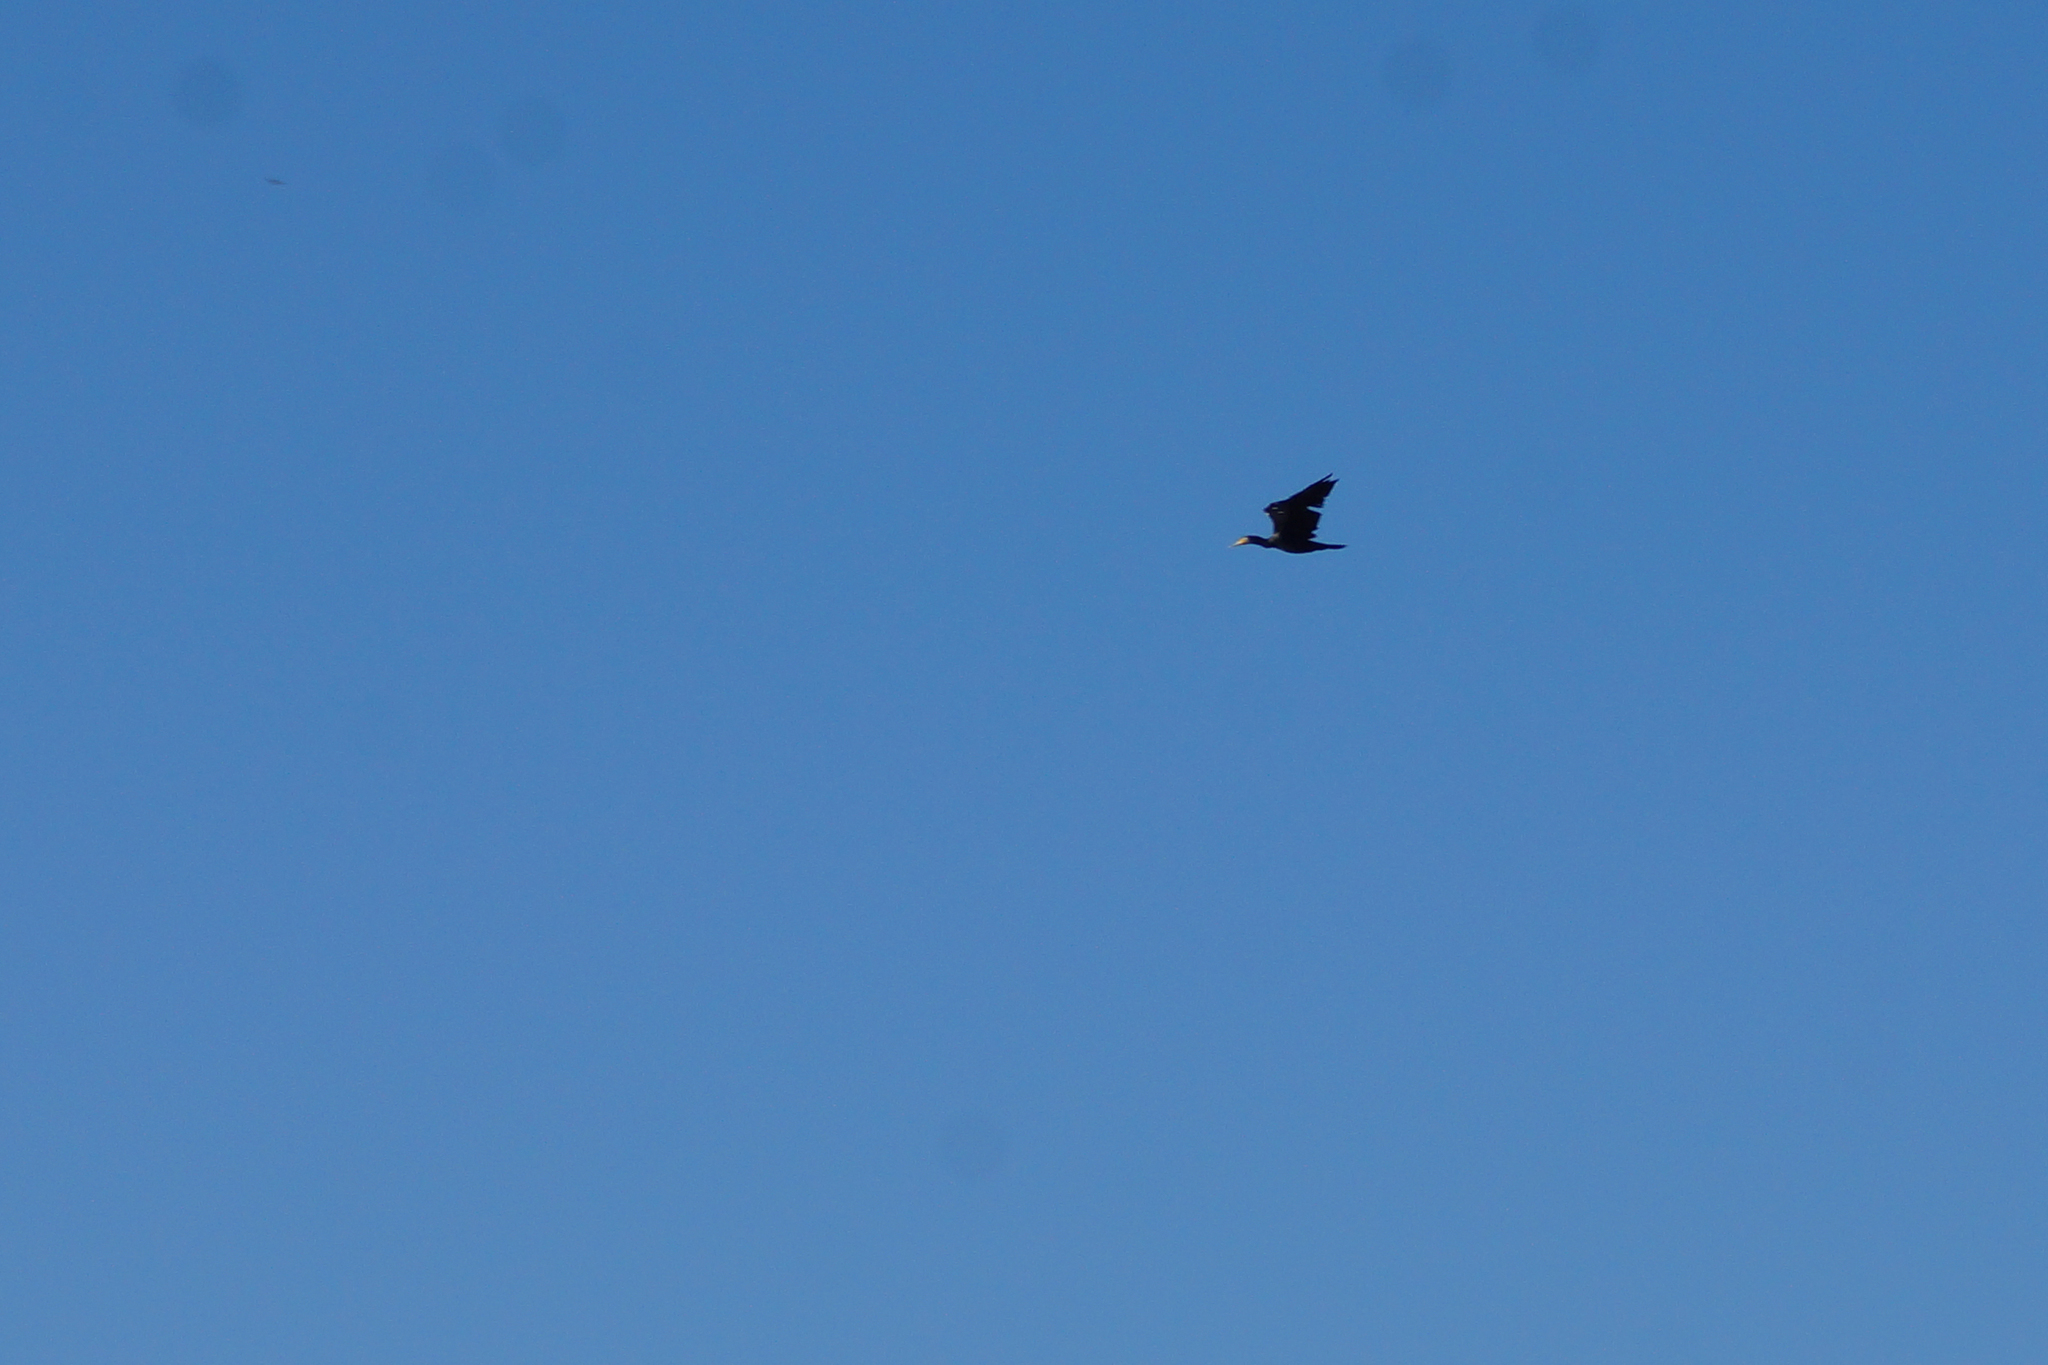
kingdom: Animalia
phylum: Chordata
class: Aves
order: Suliformes
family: Phalacrocoracidae
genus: Phalacrocorax
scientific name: Phalacrocorax carbo
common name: Great cormorant
